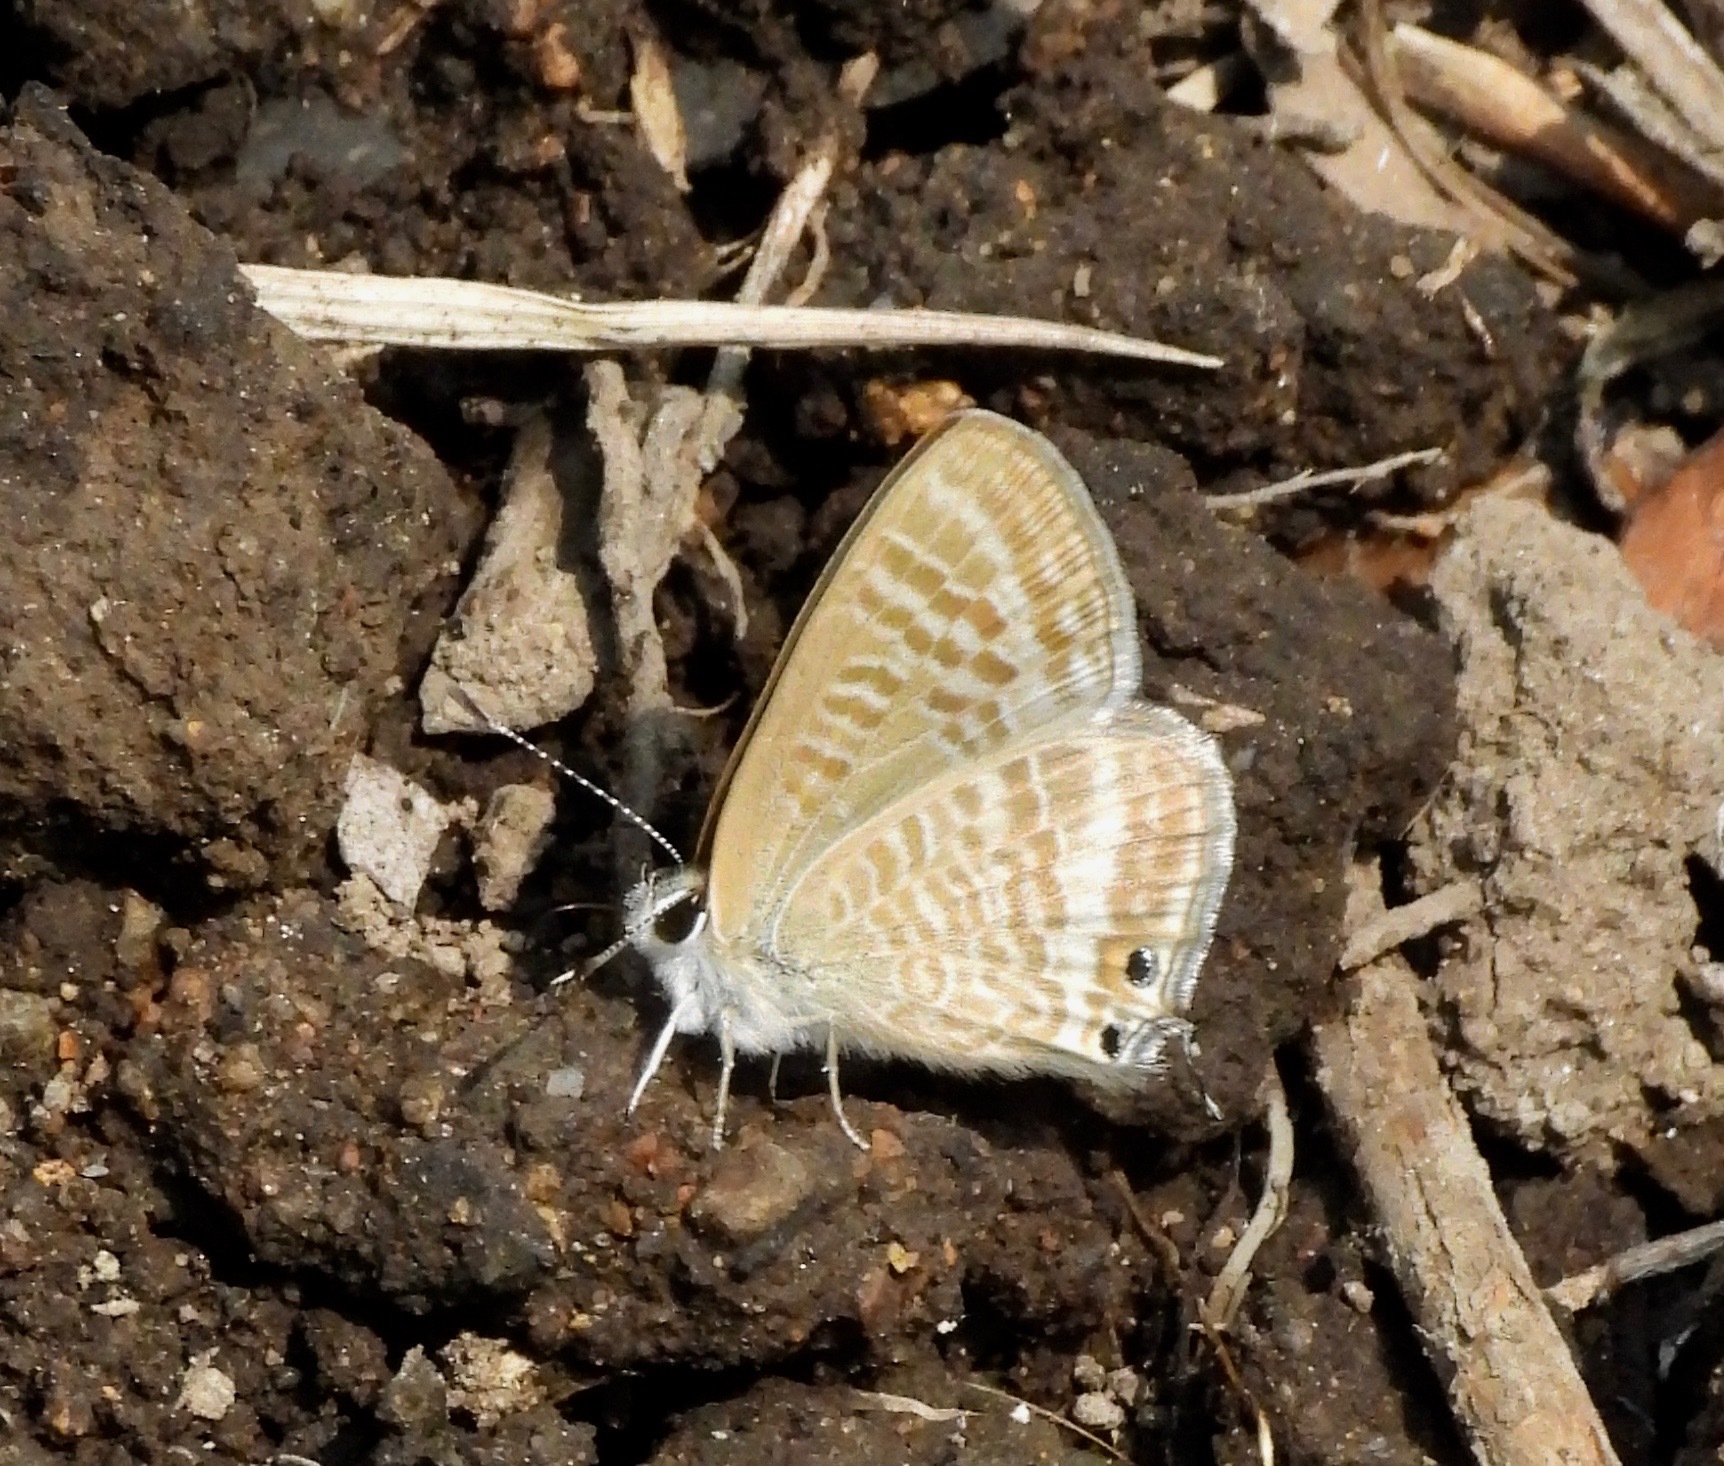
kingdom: Animalia
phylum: Arthropoda
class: Insecta
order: Lepidoptera
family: Lycaenidae
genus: Lampides
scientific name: Lampides boeticus
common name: Long-tailed blue
